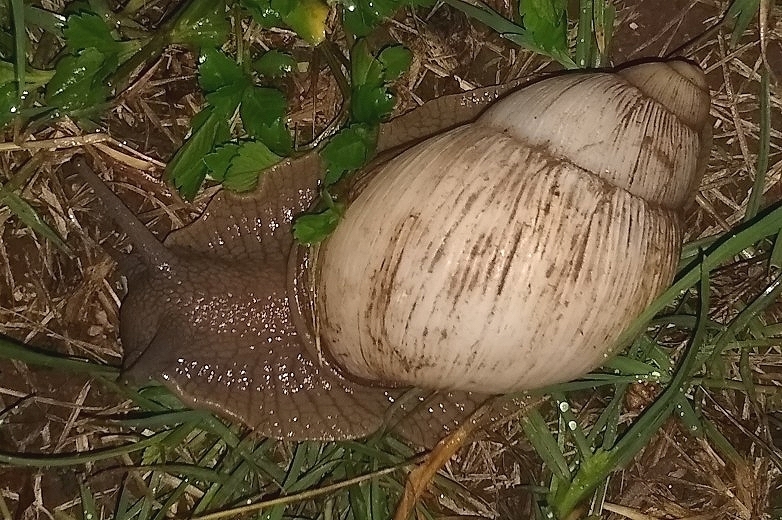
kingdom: Animalia
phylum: Mollusca
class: Gastropoda
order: Stylommatophora
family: Strophocheilidae
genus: Megalobulimus
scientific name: Megalobulimus
